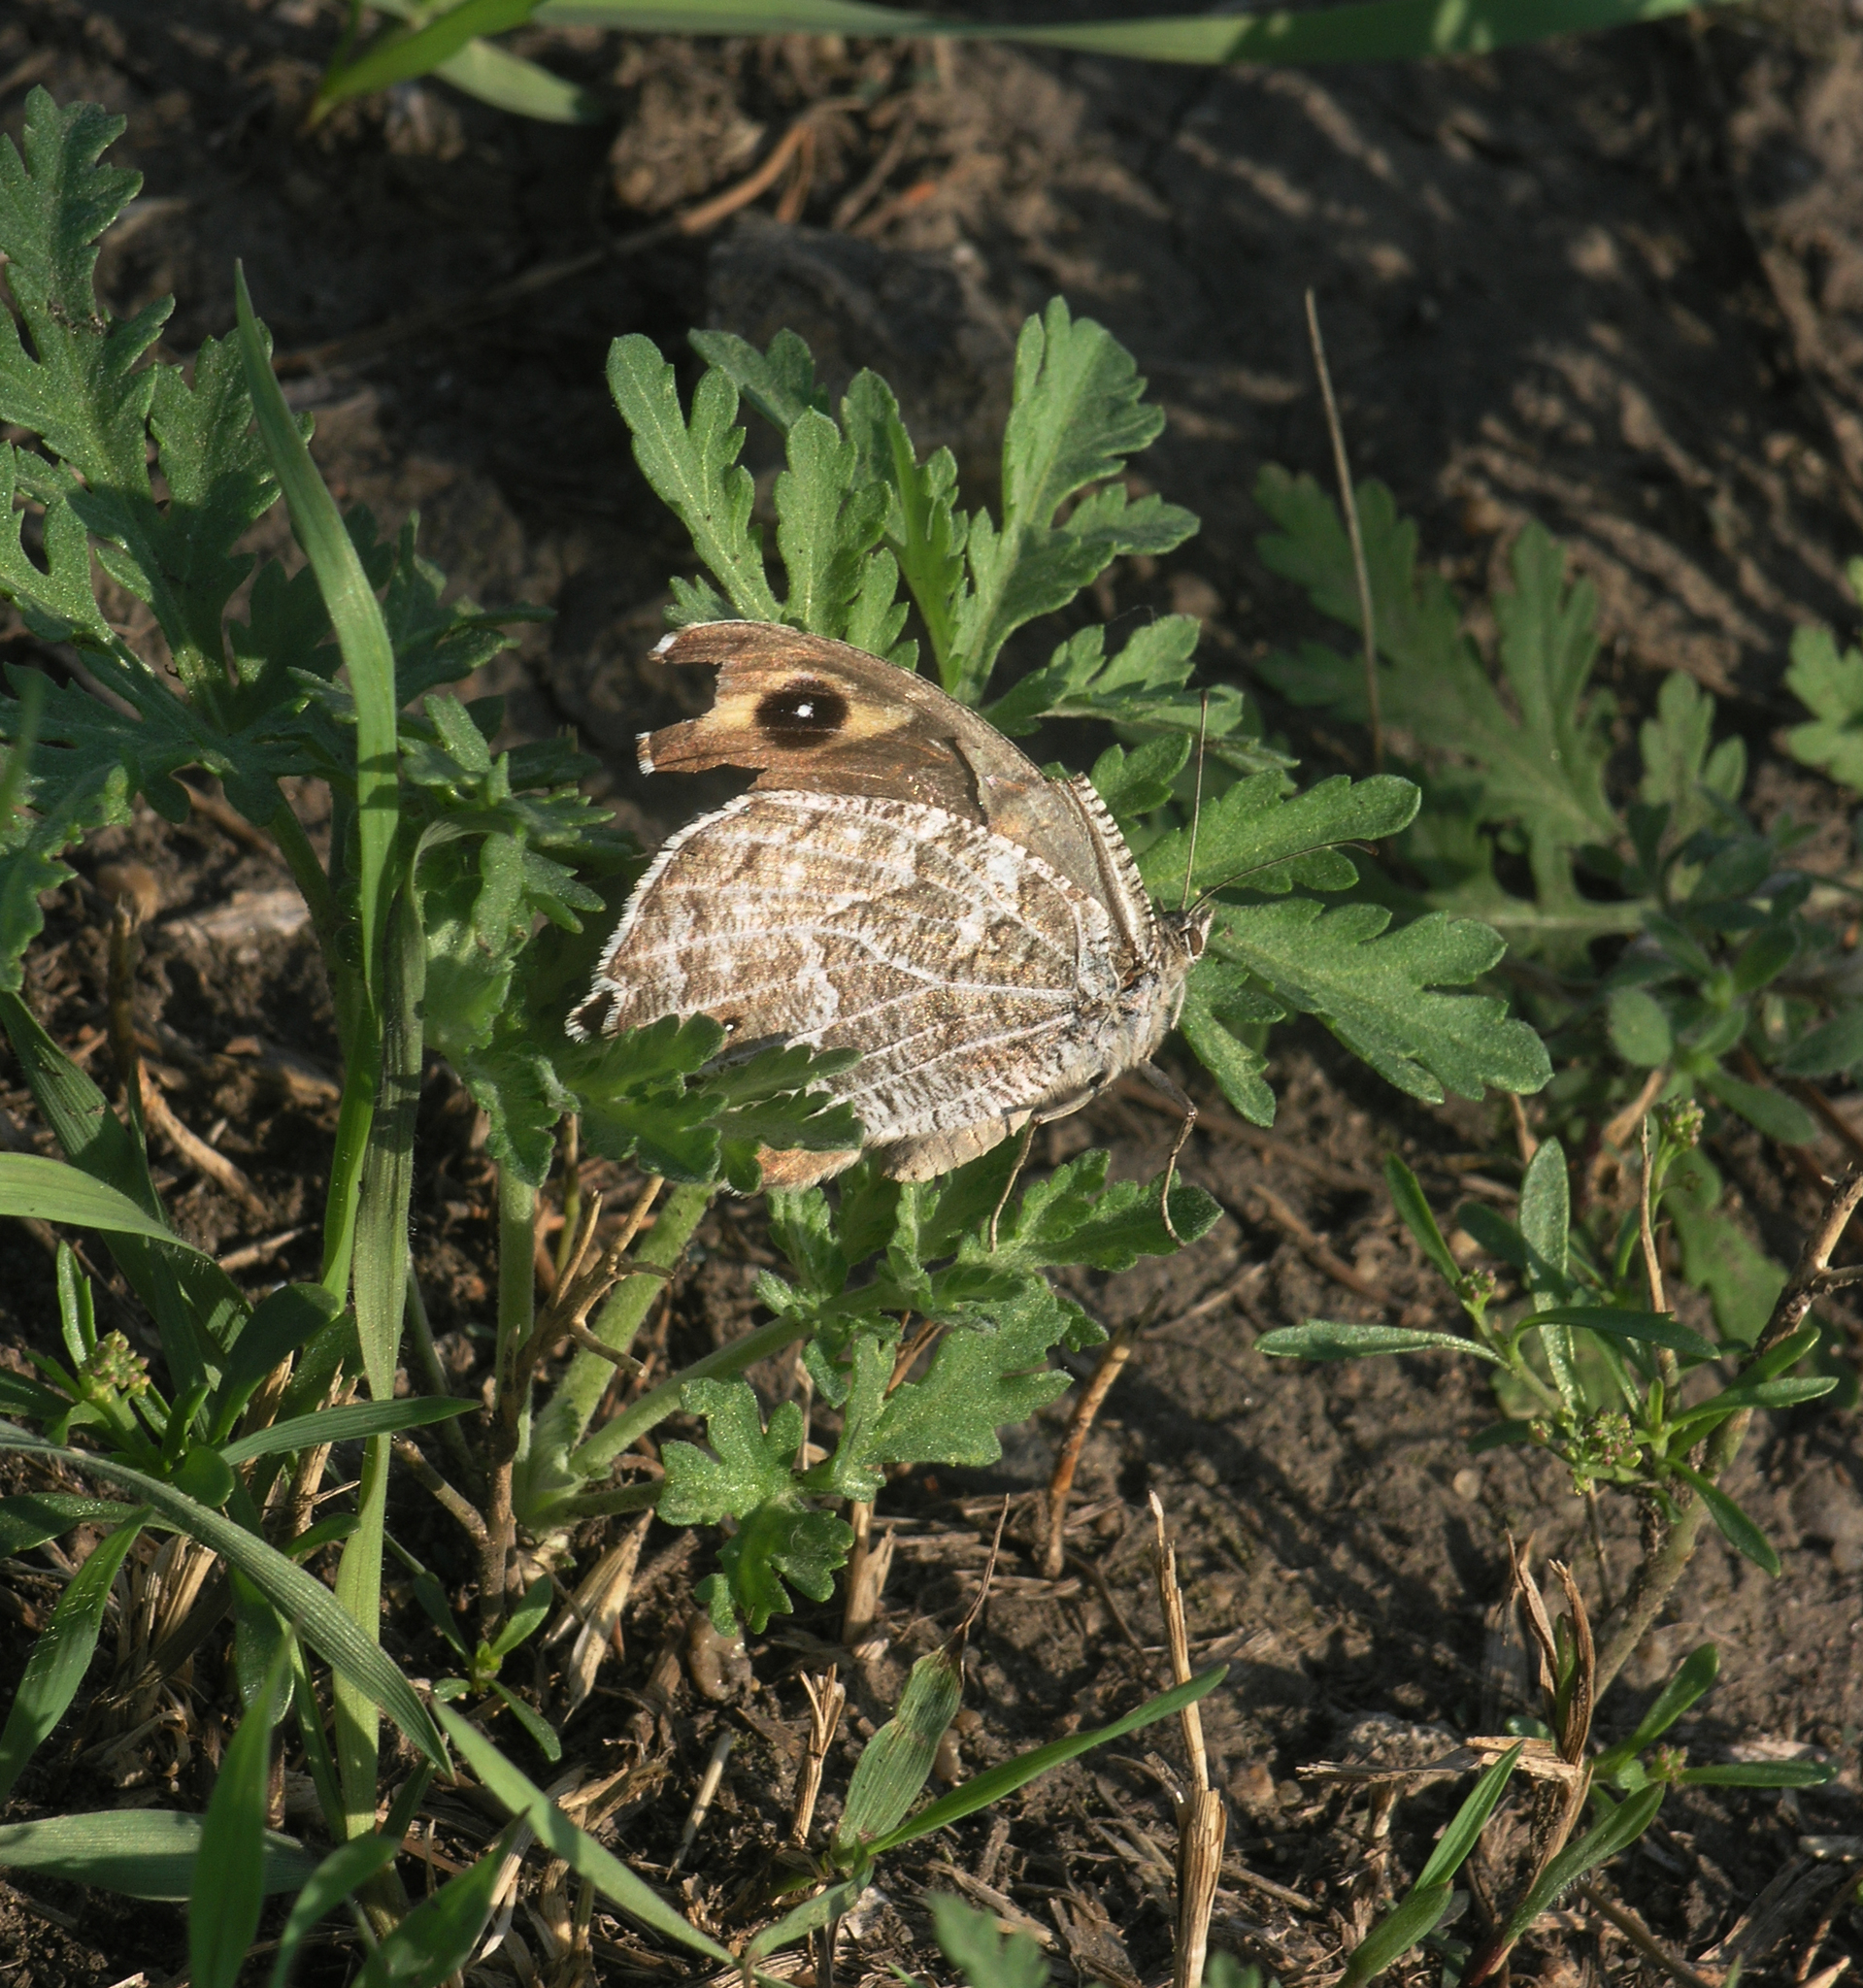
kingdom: Animalia
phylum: Arthropoda
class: Insecta
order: Lepidoptera
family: Nymphalidae
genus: Hipparchia
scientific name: Hipparchia autonoe
